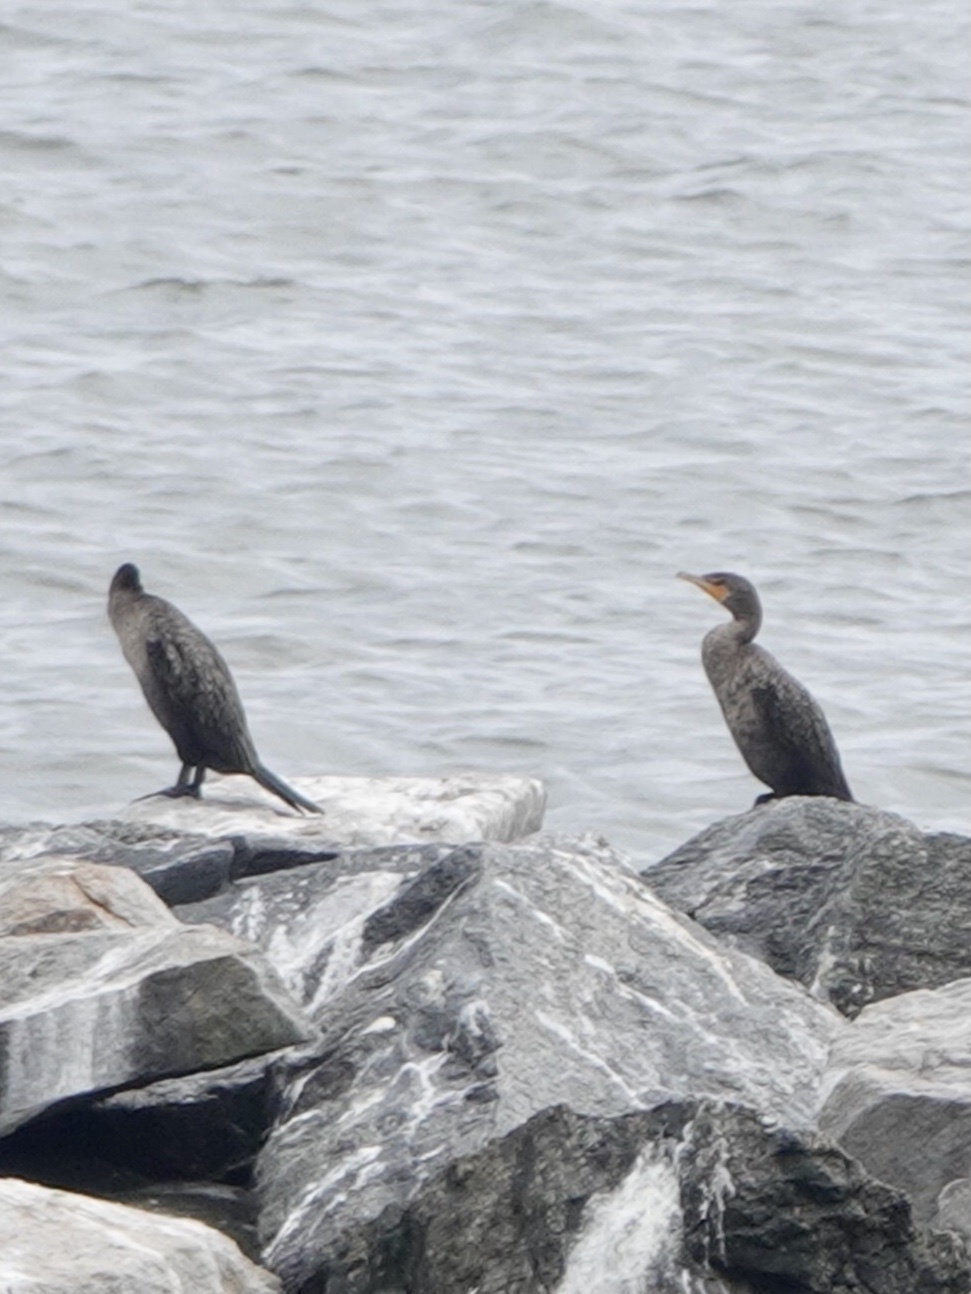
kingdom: Animalia
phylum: Chordata
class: Aves
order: Suliformes
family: Phalacrocoracidae
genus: Phalacrocorax
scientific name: Phalacrocorax auritus
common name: Double-crested cormorant
